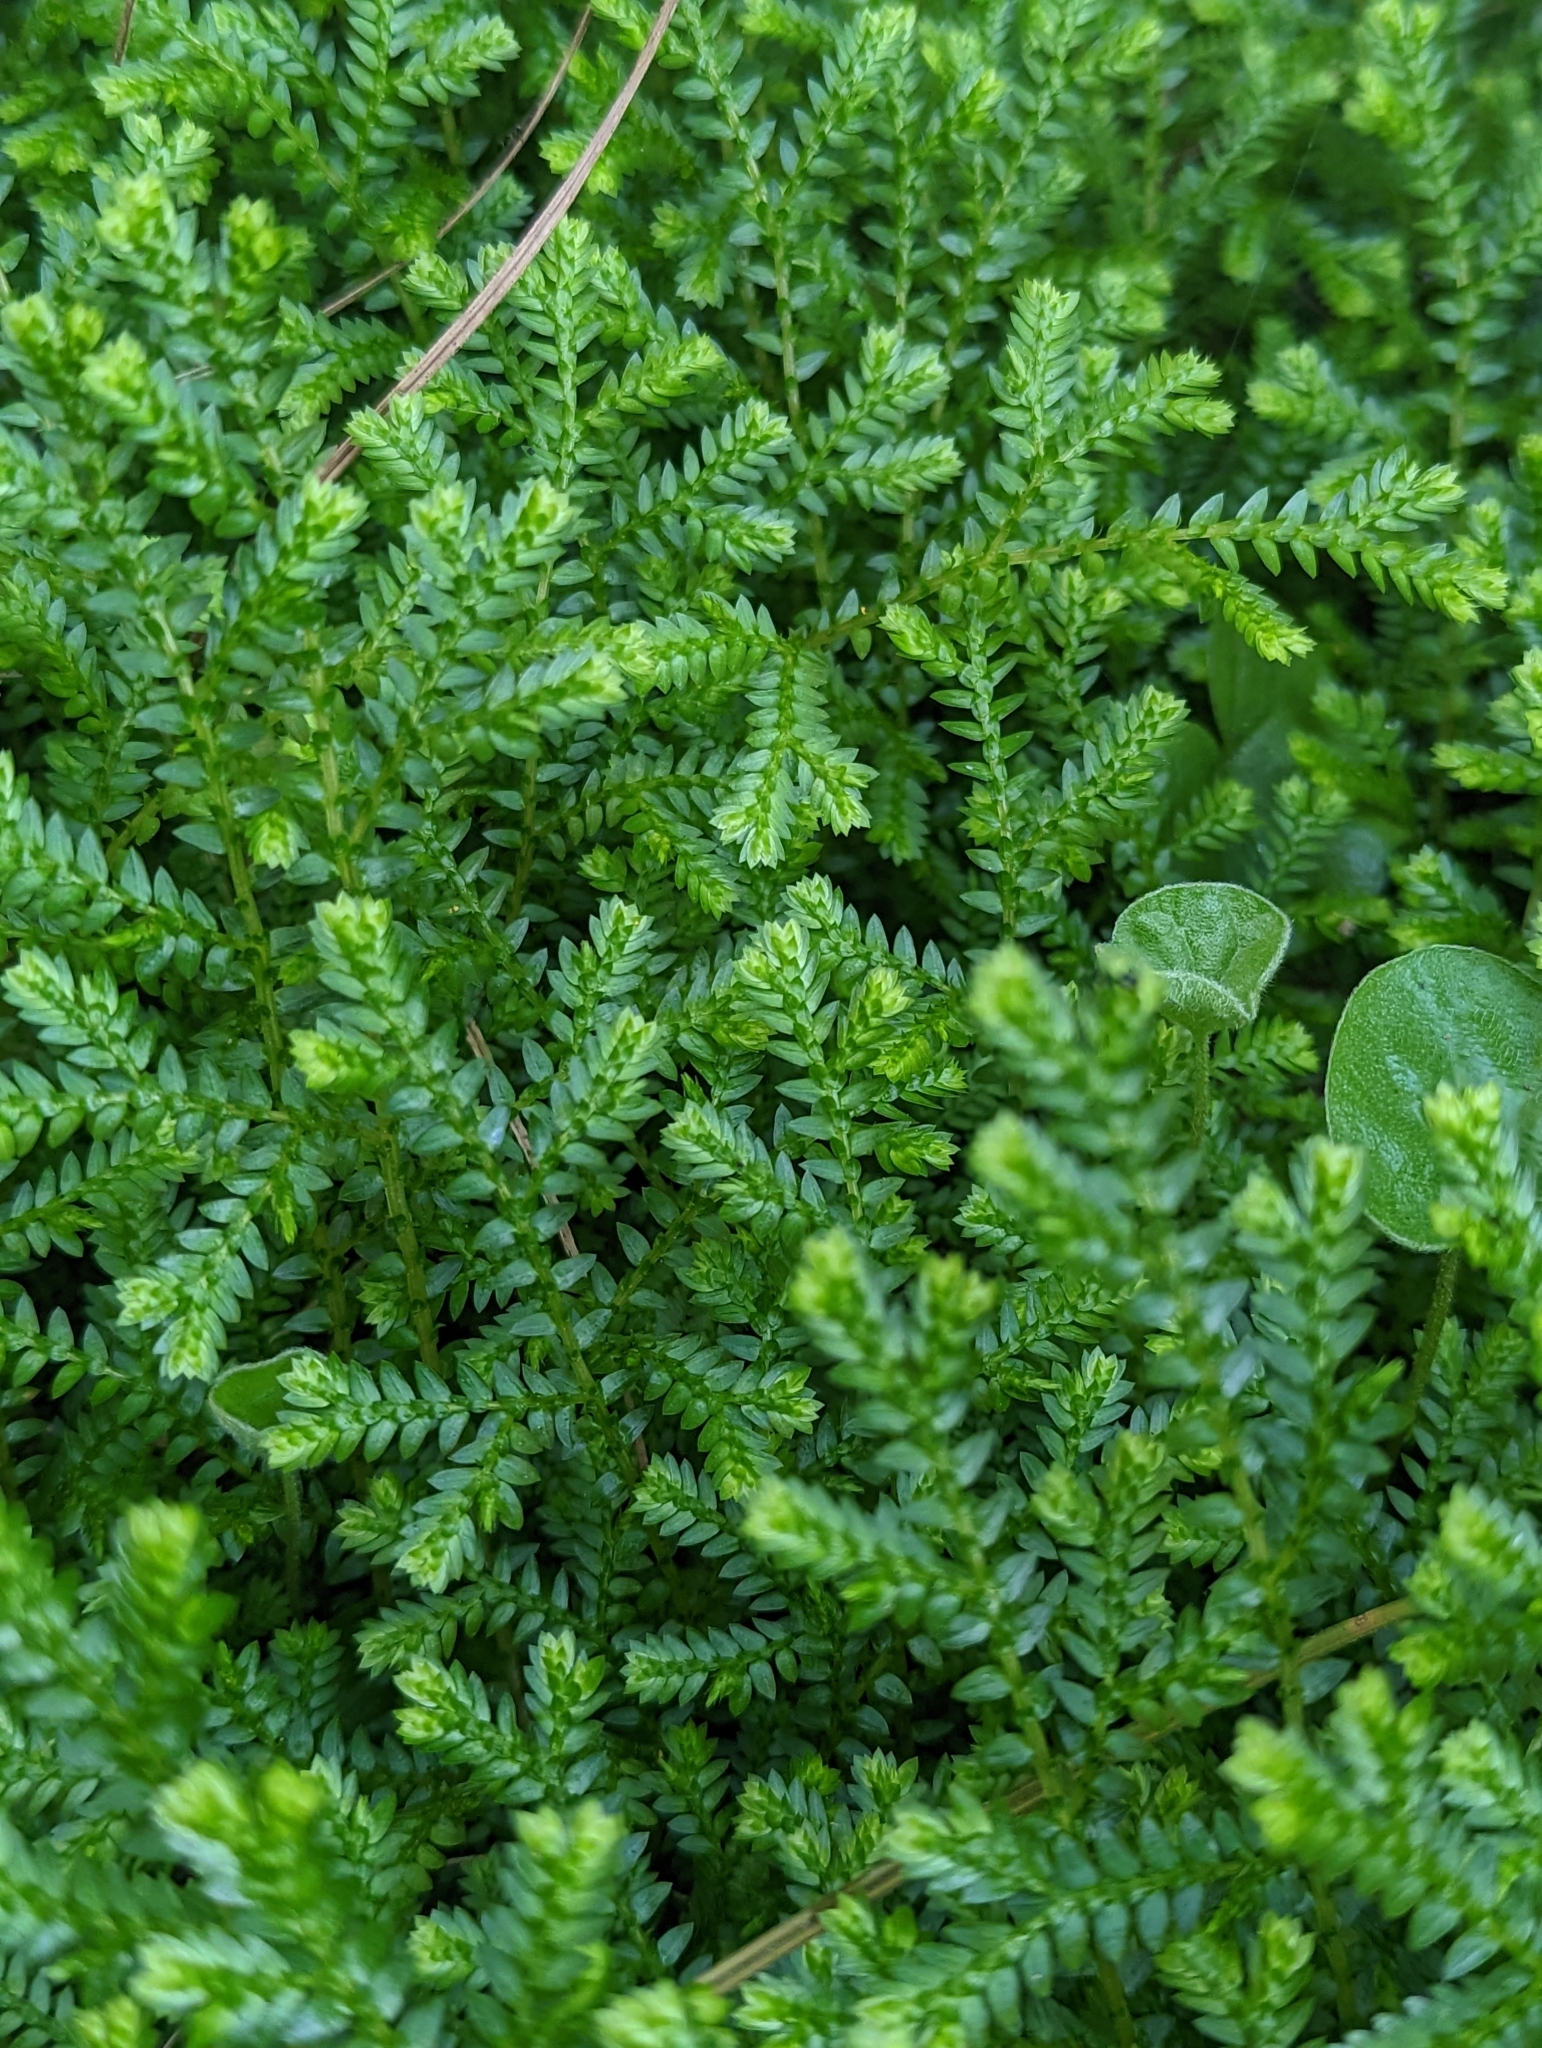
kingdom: Plantae
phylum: Tracheophyta
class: Lycopodiopsida
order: Selaginellales
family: Selaginellaceae
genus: Selaginella
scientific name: Selaginella kraussiana
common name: Krauss' spikemoss
